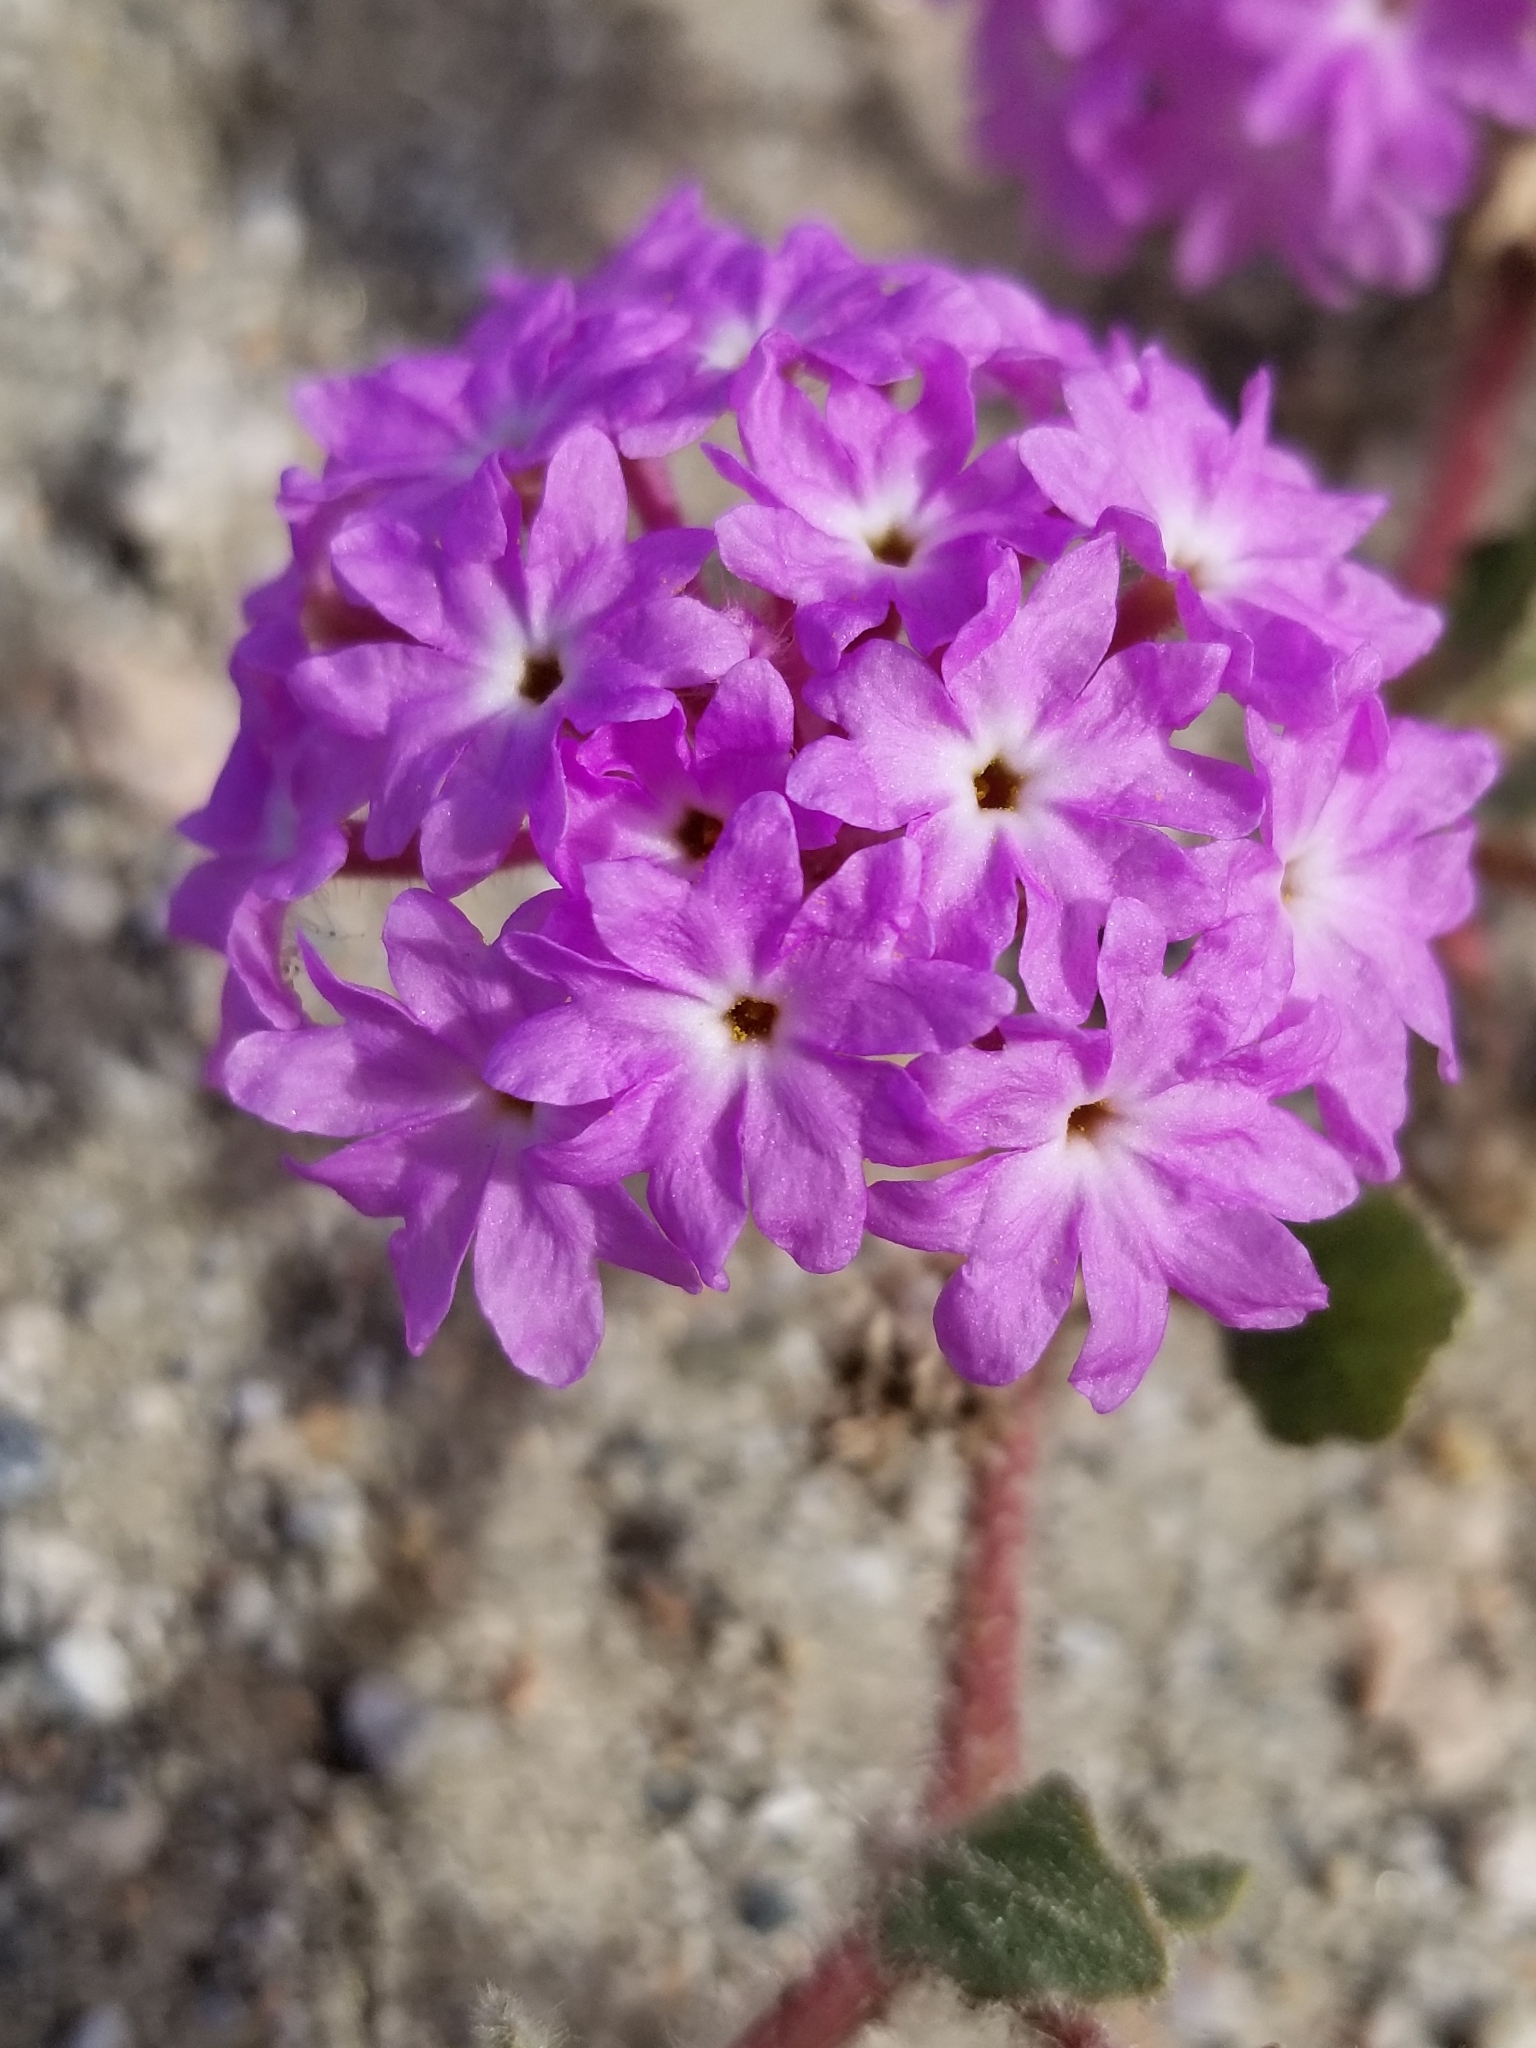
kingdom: Plantae
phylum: Tracheophyta
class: Magnoliopsida
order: Caryophyllales
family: Nyctaginaceae
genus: Abronia
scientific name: Abronia villosa
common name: Desert sand-verbena
